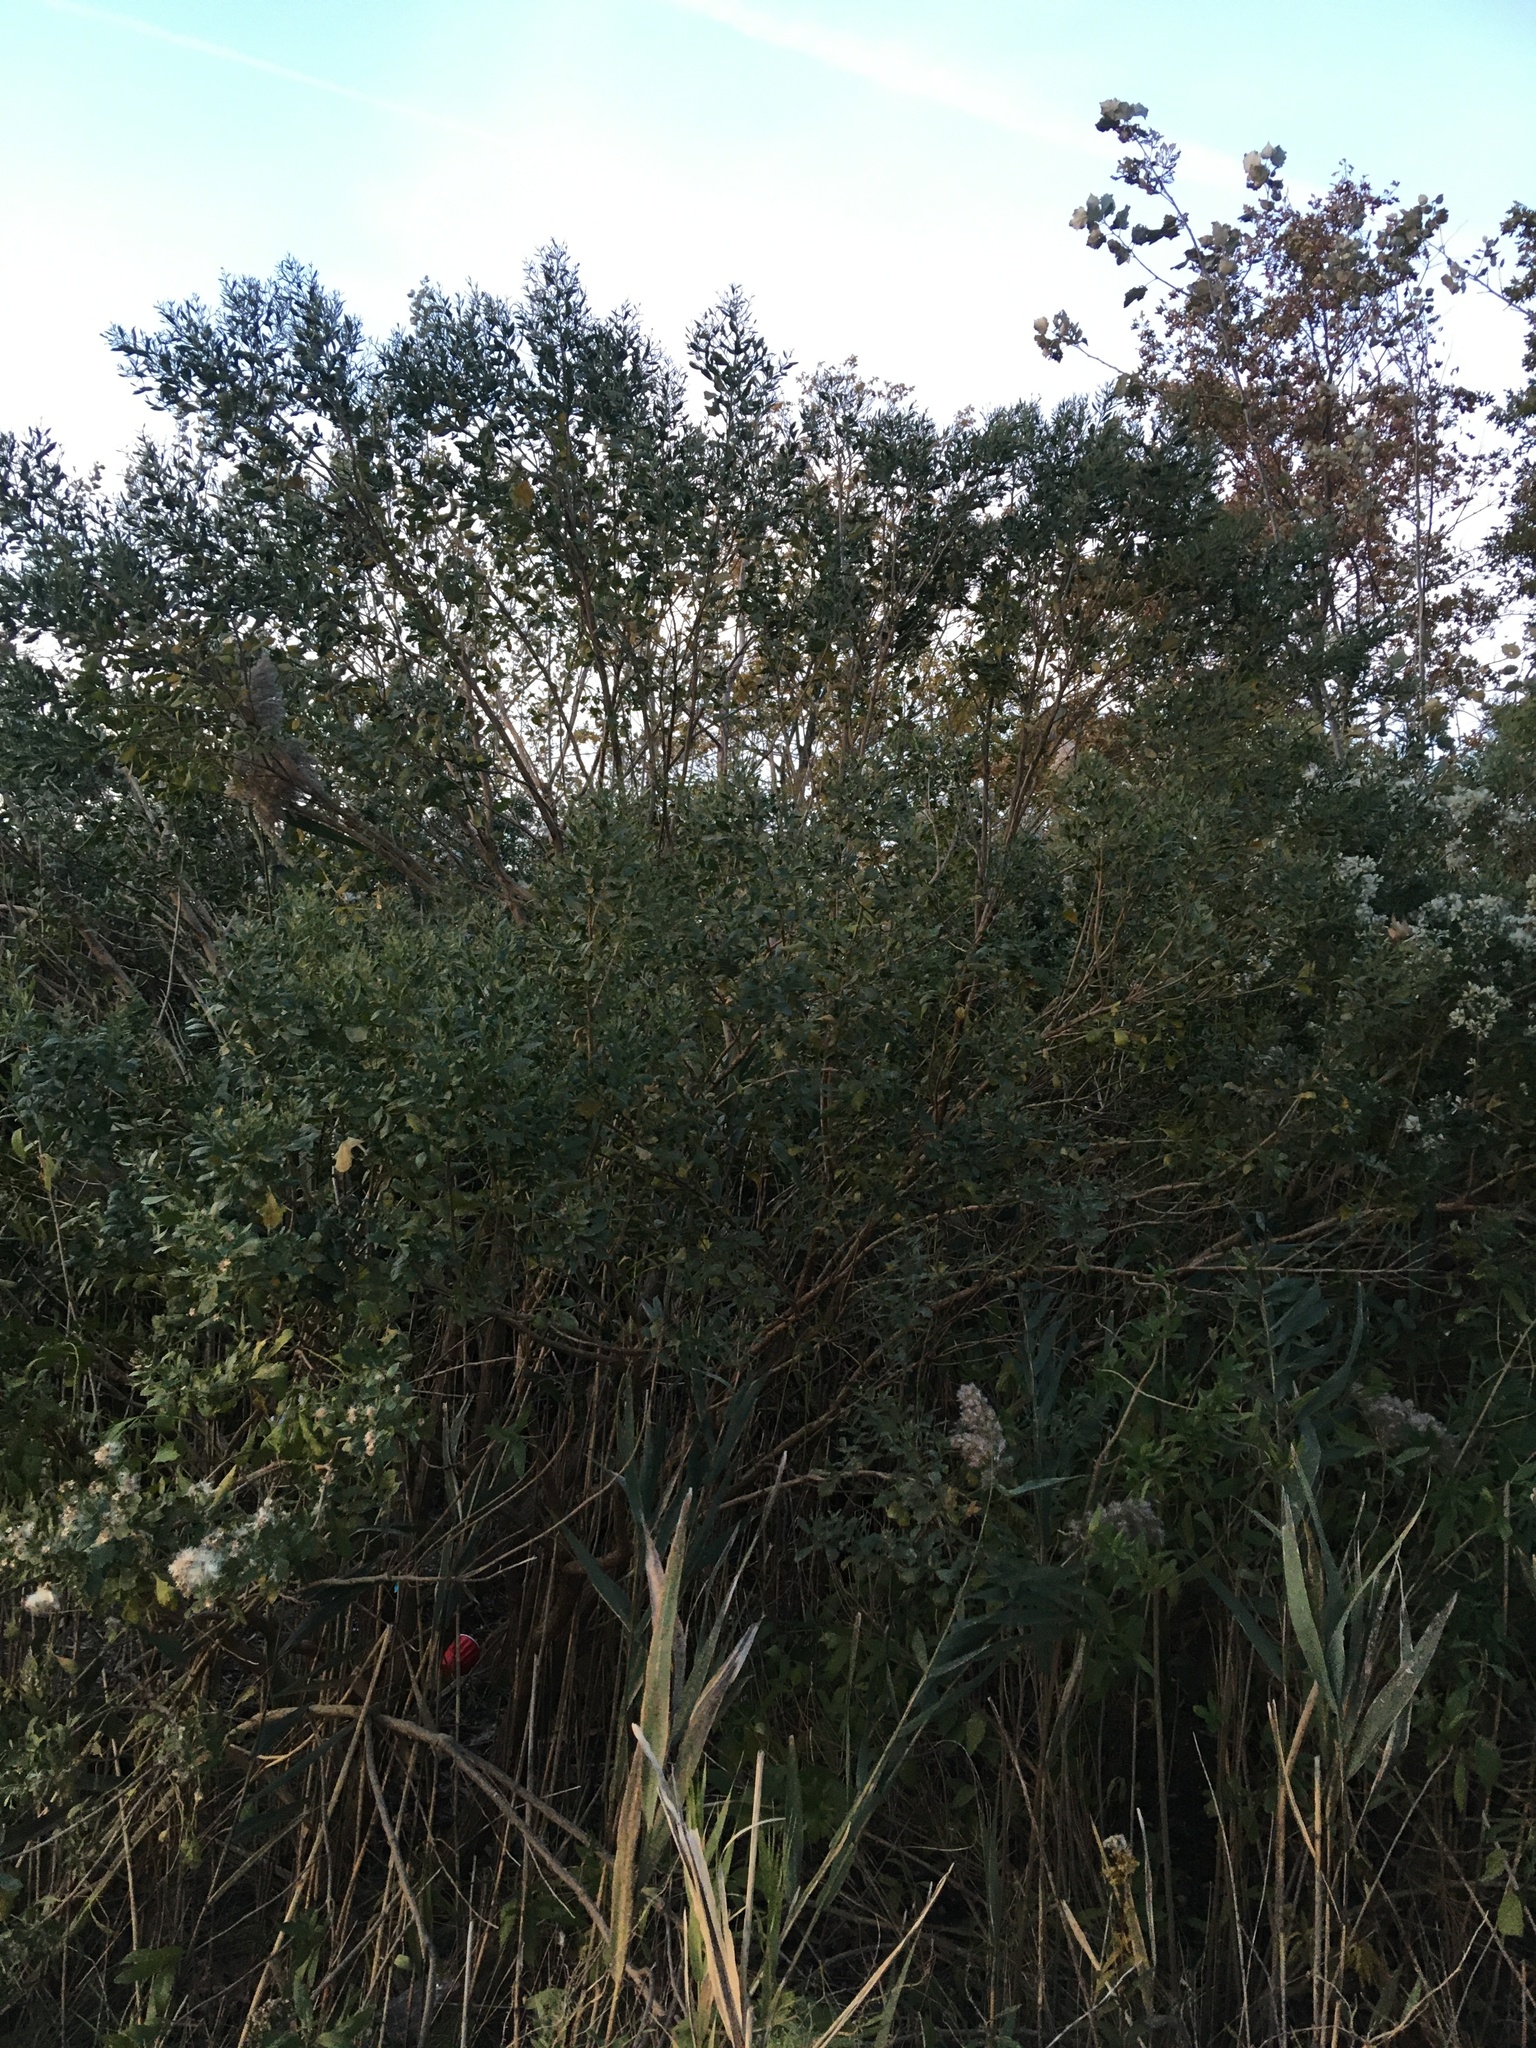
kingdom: Plantae
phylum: Tracheophyta
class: Magnoliopsida
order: Asterales
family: Asteraceae
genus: Baccharis
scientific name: Baccharis halimifolia
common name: Eastern baccharis
